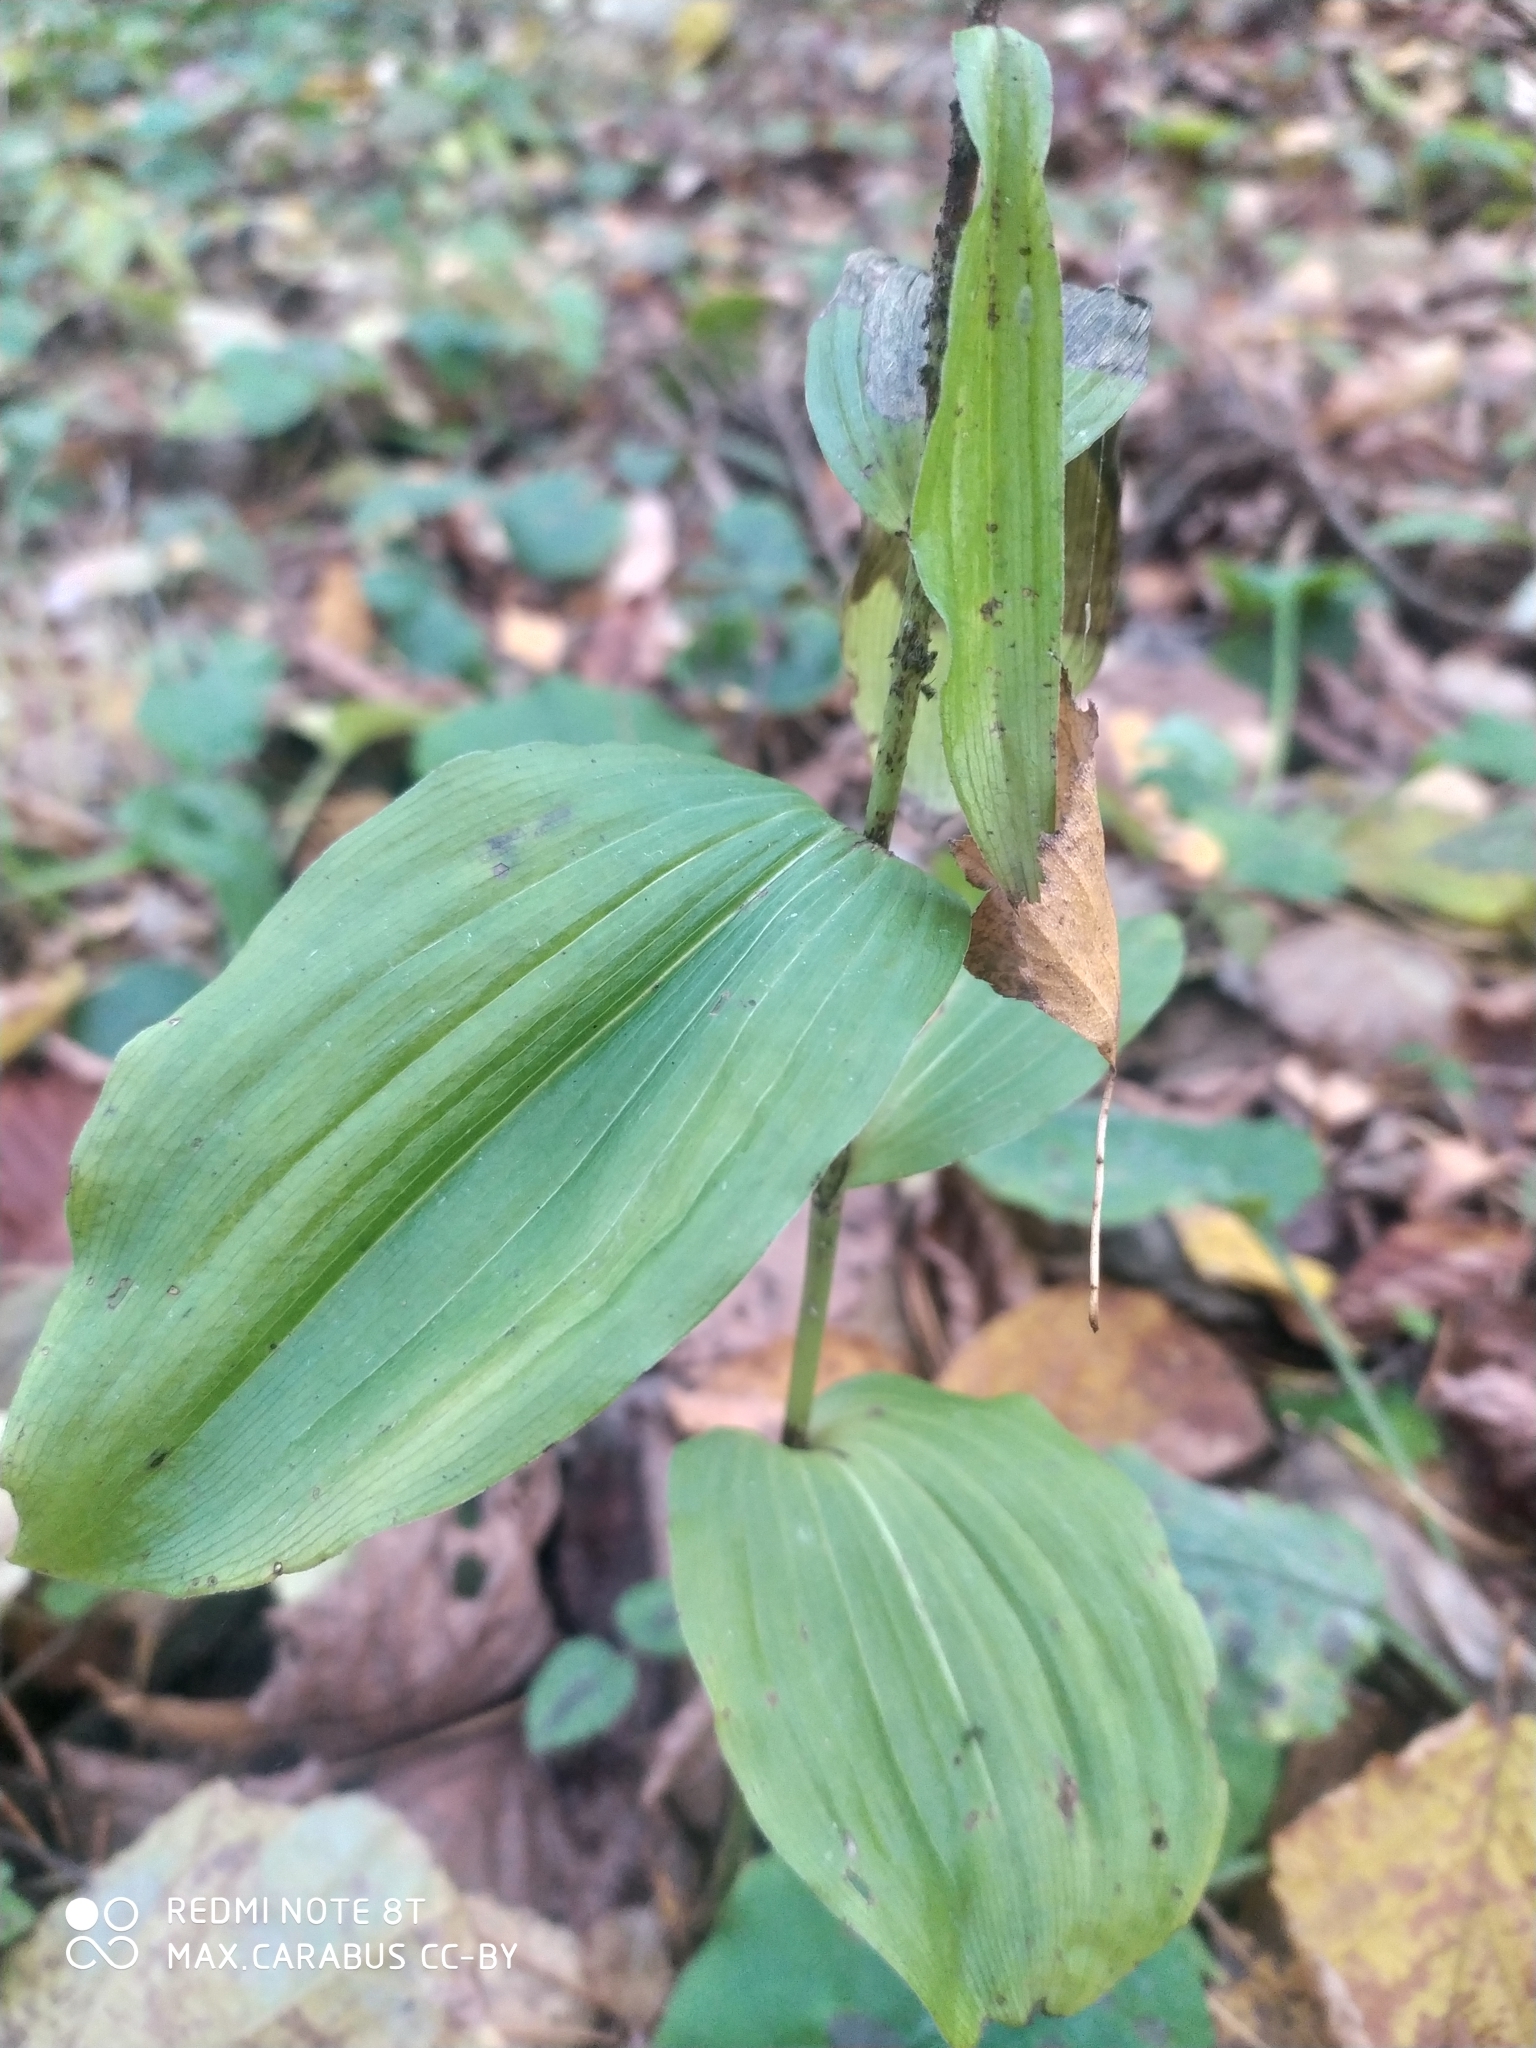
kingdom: Plantae
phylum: Tracheophyta
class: Liliopsida
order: Asparagales
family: Orchidaceae
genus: Epipactis
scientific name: Epipactis helleborine
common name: Broad-leaved helleborine
